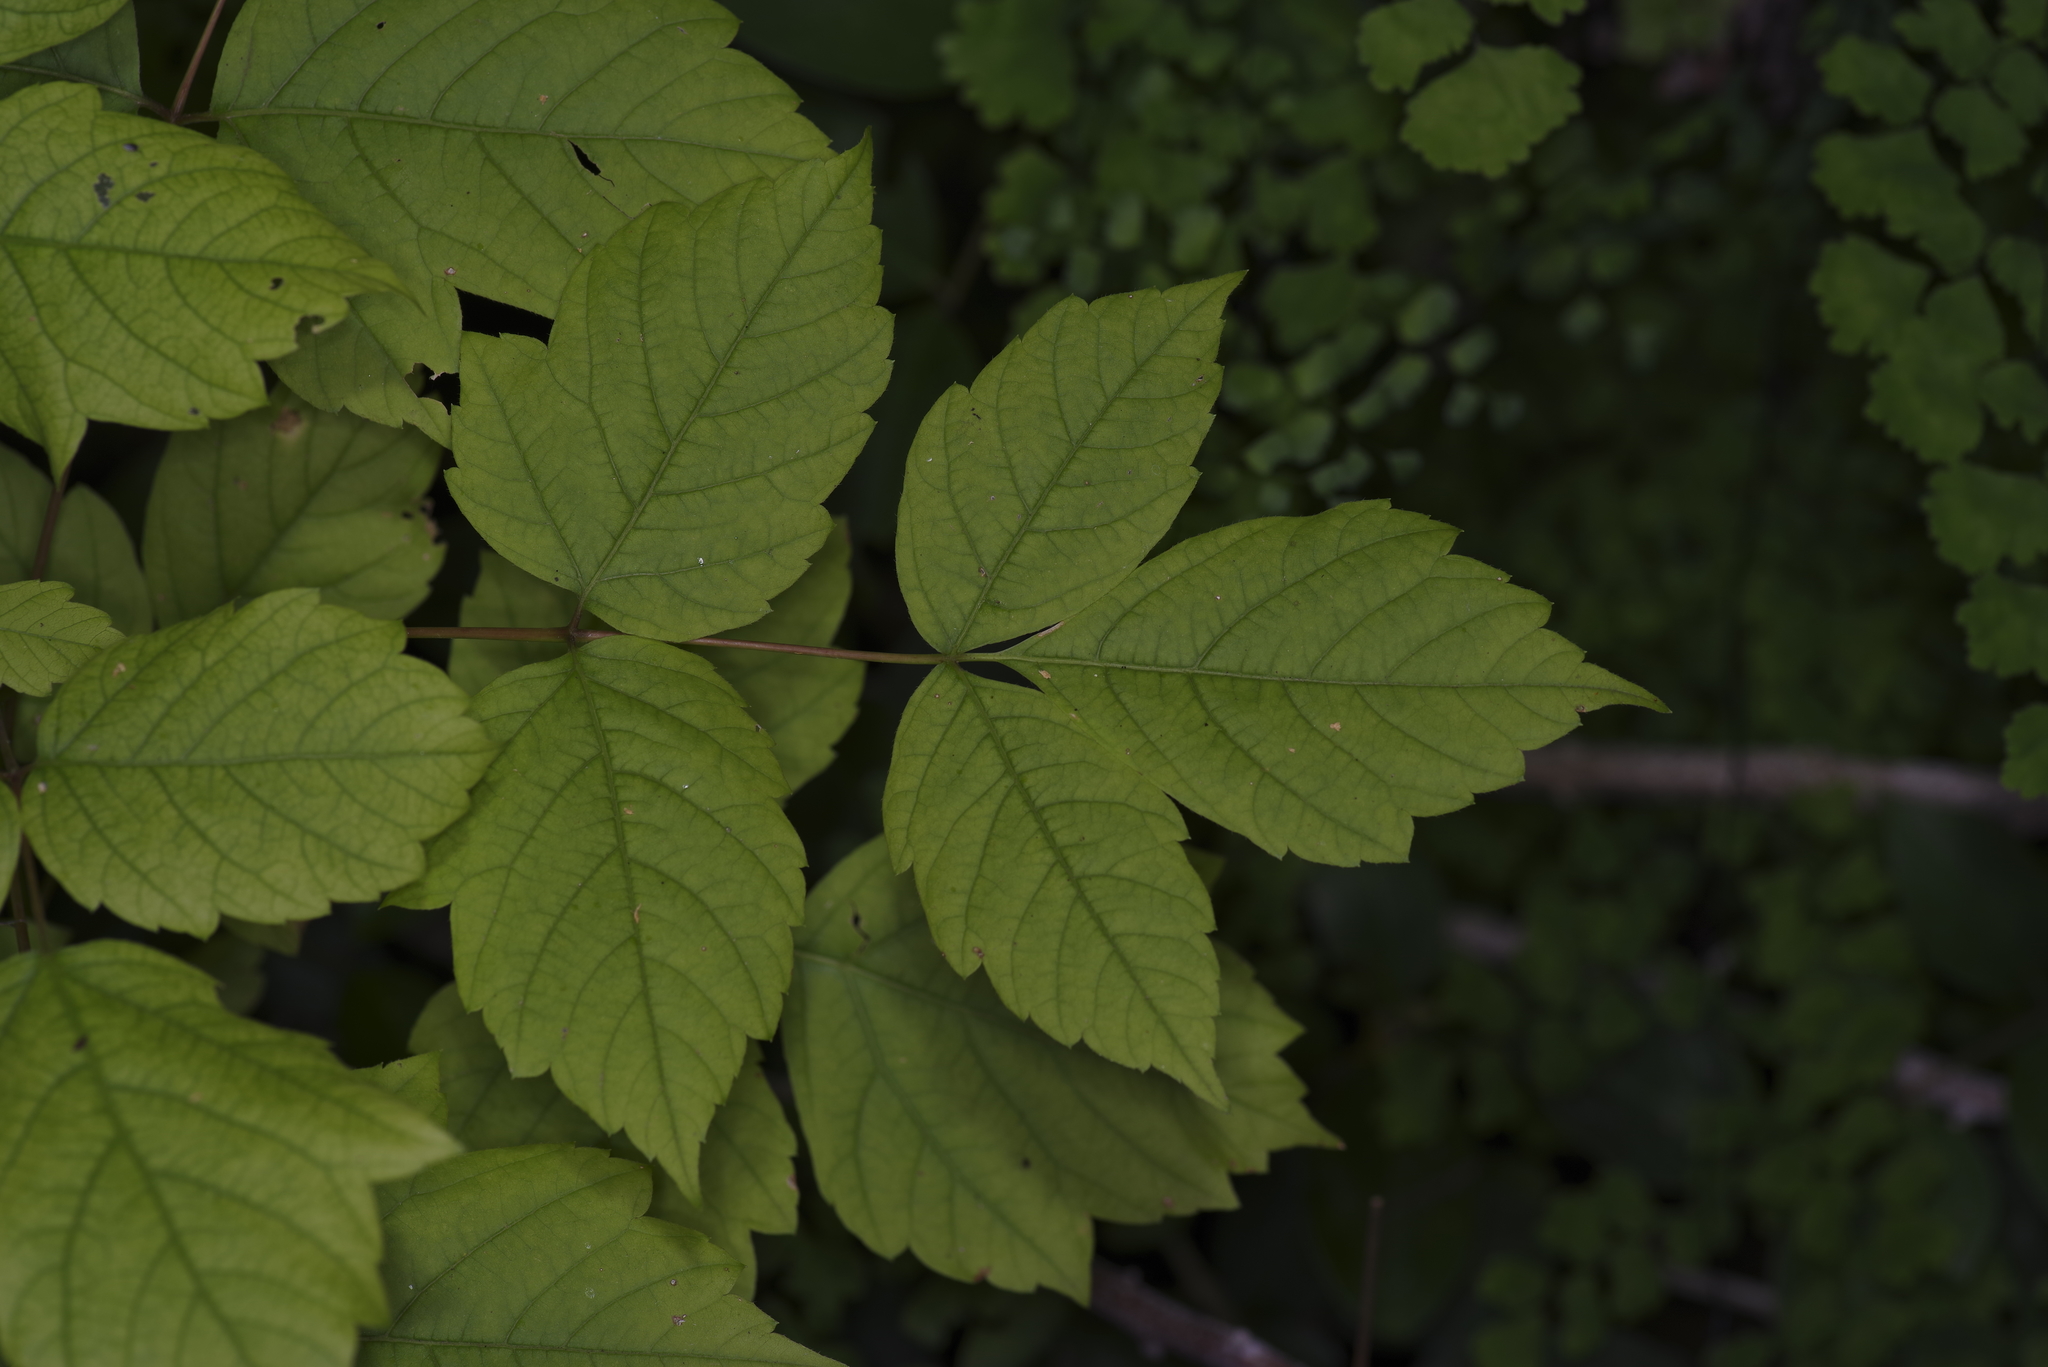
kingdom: Plantae
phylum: Tracheophyta
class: Magnoliopsida
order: Sapindales
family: Sapindaceae
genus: Acer
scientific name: Acer negundo
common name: Ashleaf maple
